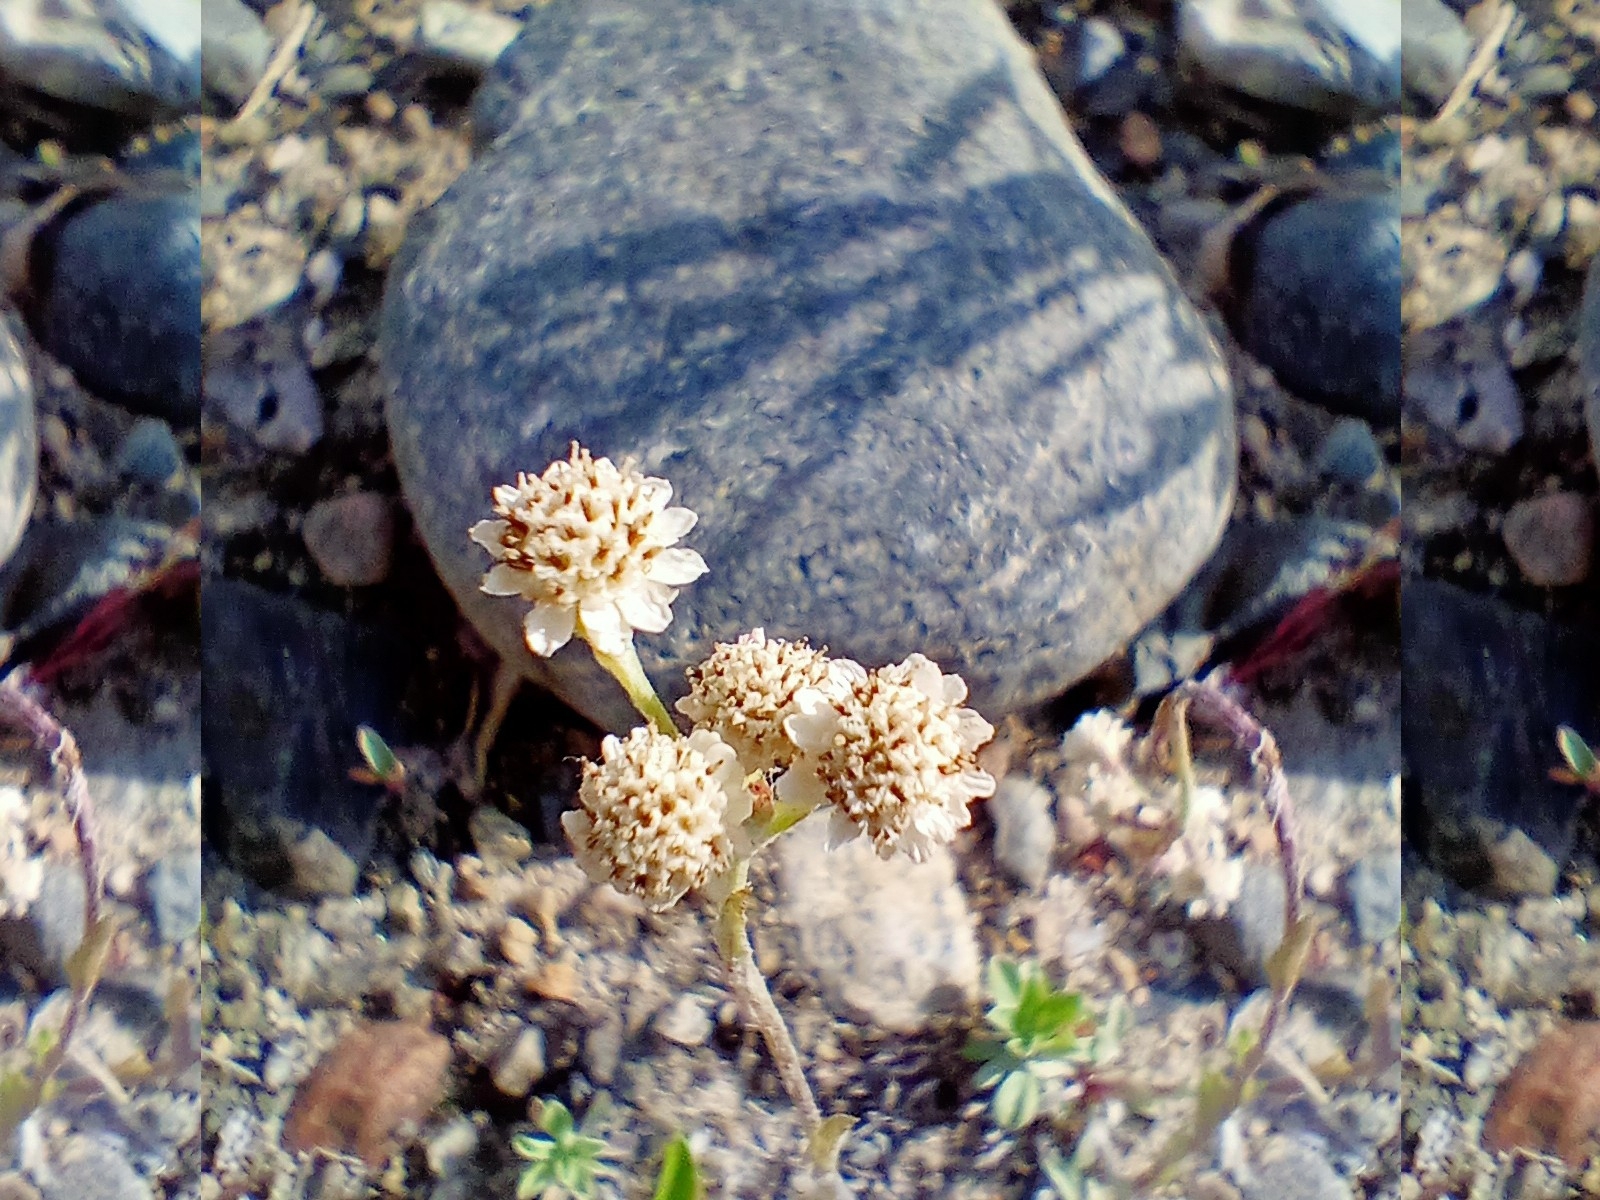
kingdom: Plantae
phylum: Tracheophyta
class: Magnoliopsida
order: Asterales
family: Asteraceae
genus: Antennaria
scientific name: Antennaria dioica
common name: Mountain everlasting
